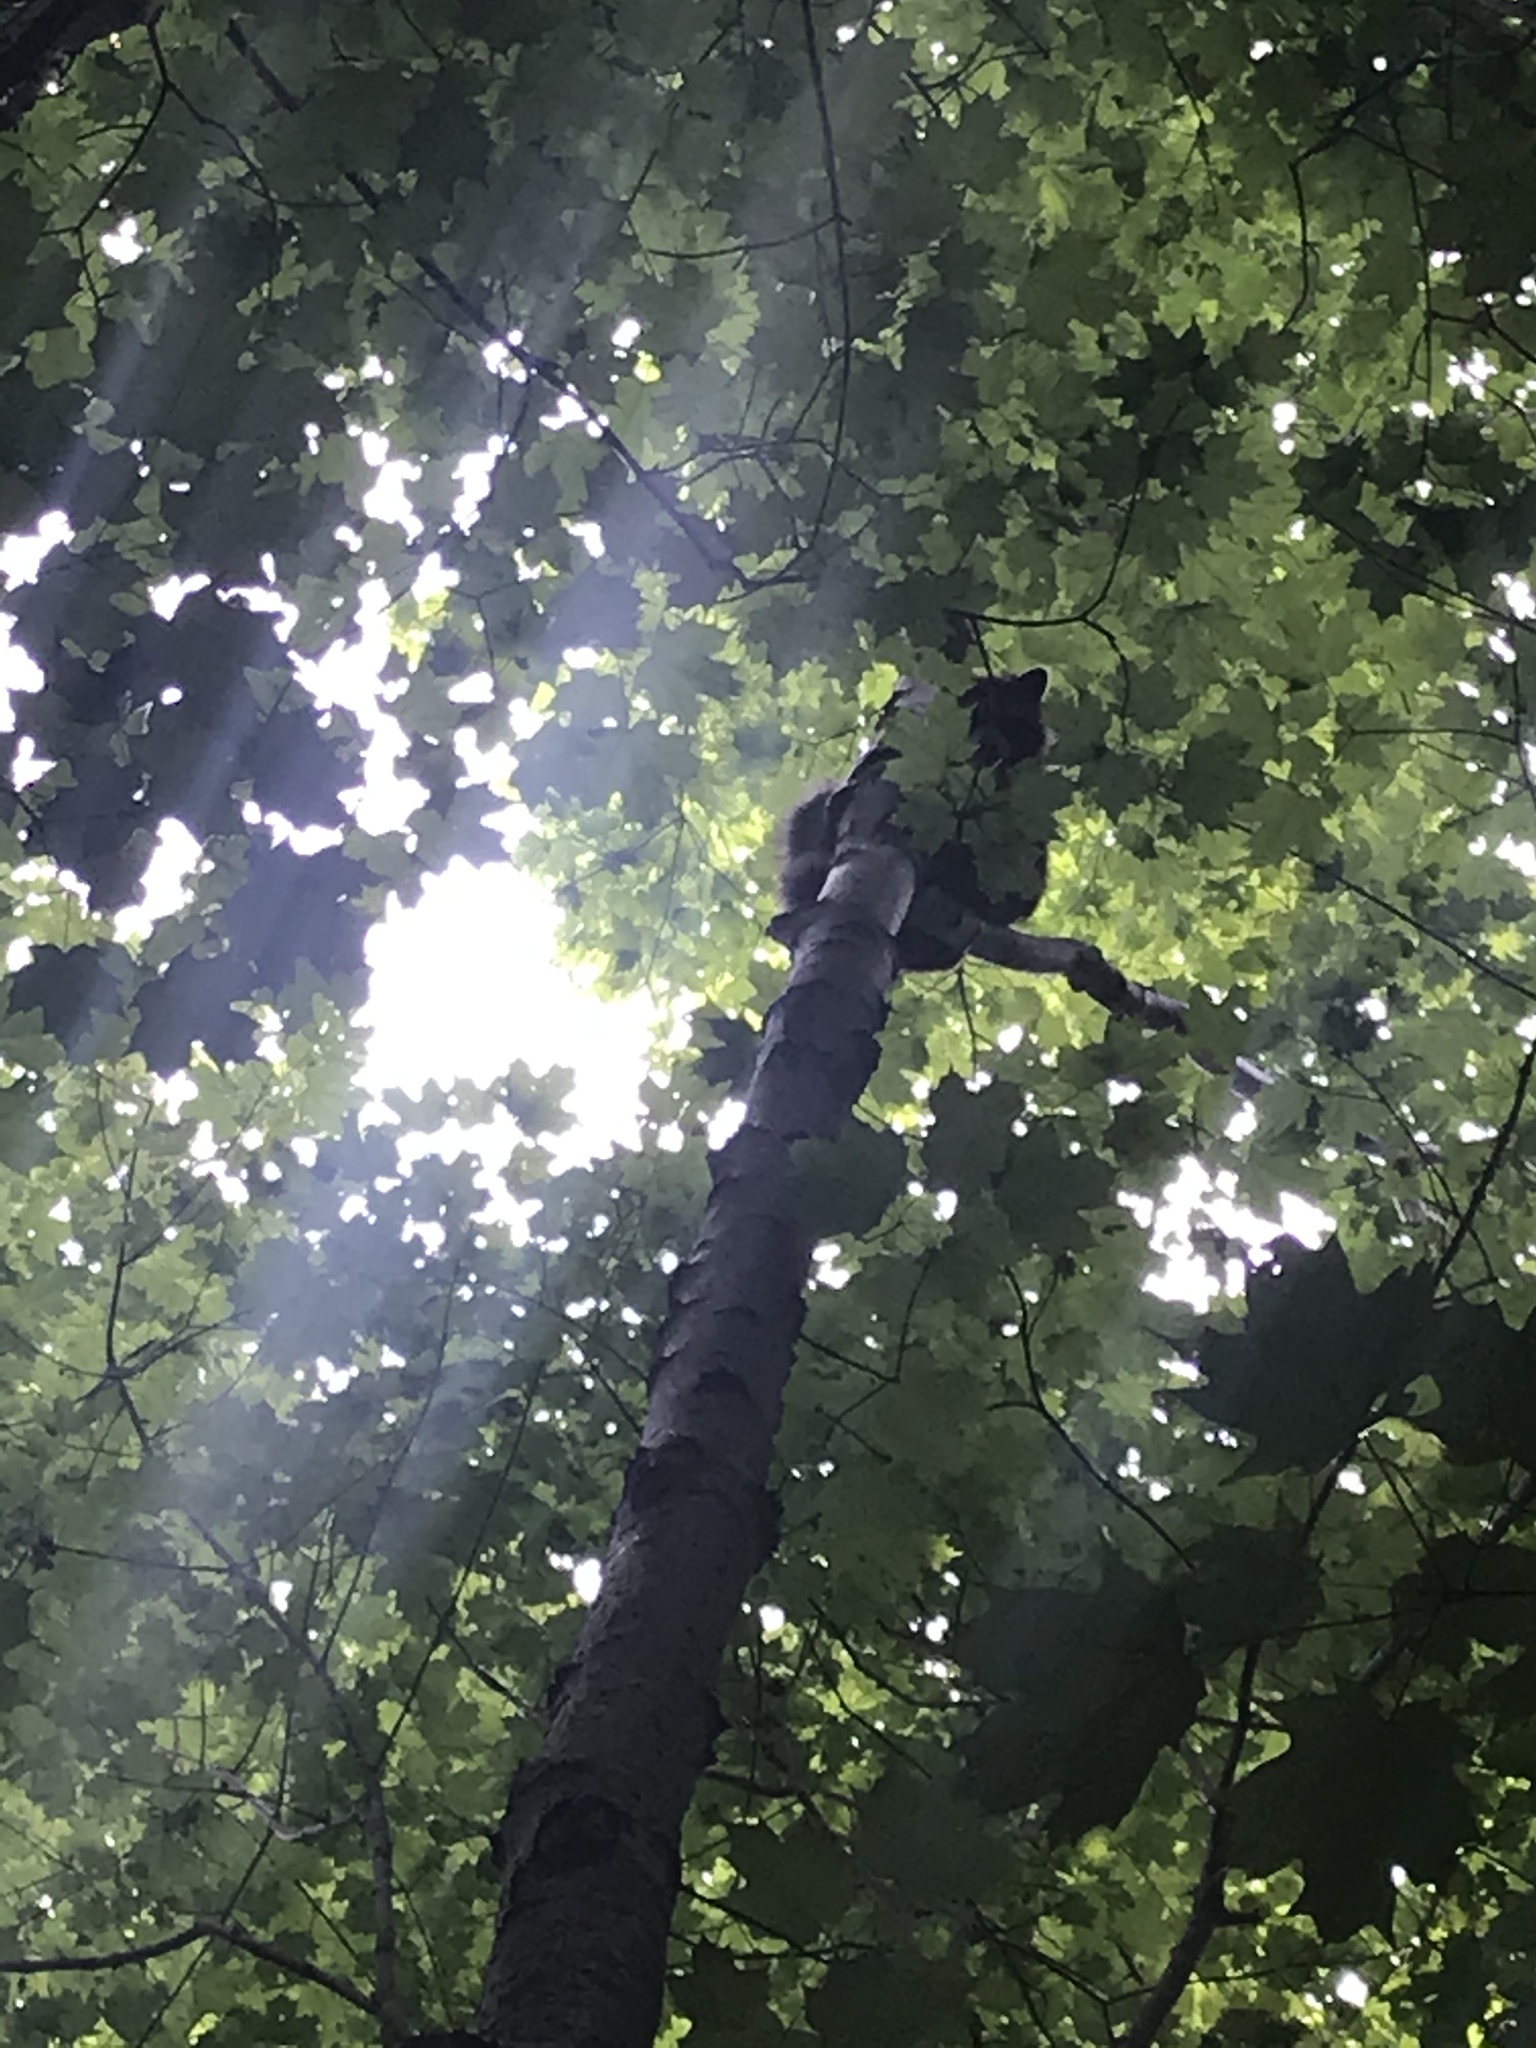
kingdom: Animalia
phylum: Chordata
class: Mammalia
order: Carnivora
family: Procyonidae
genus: Procyon
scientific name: Procyon lotor
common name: Raccoon
